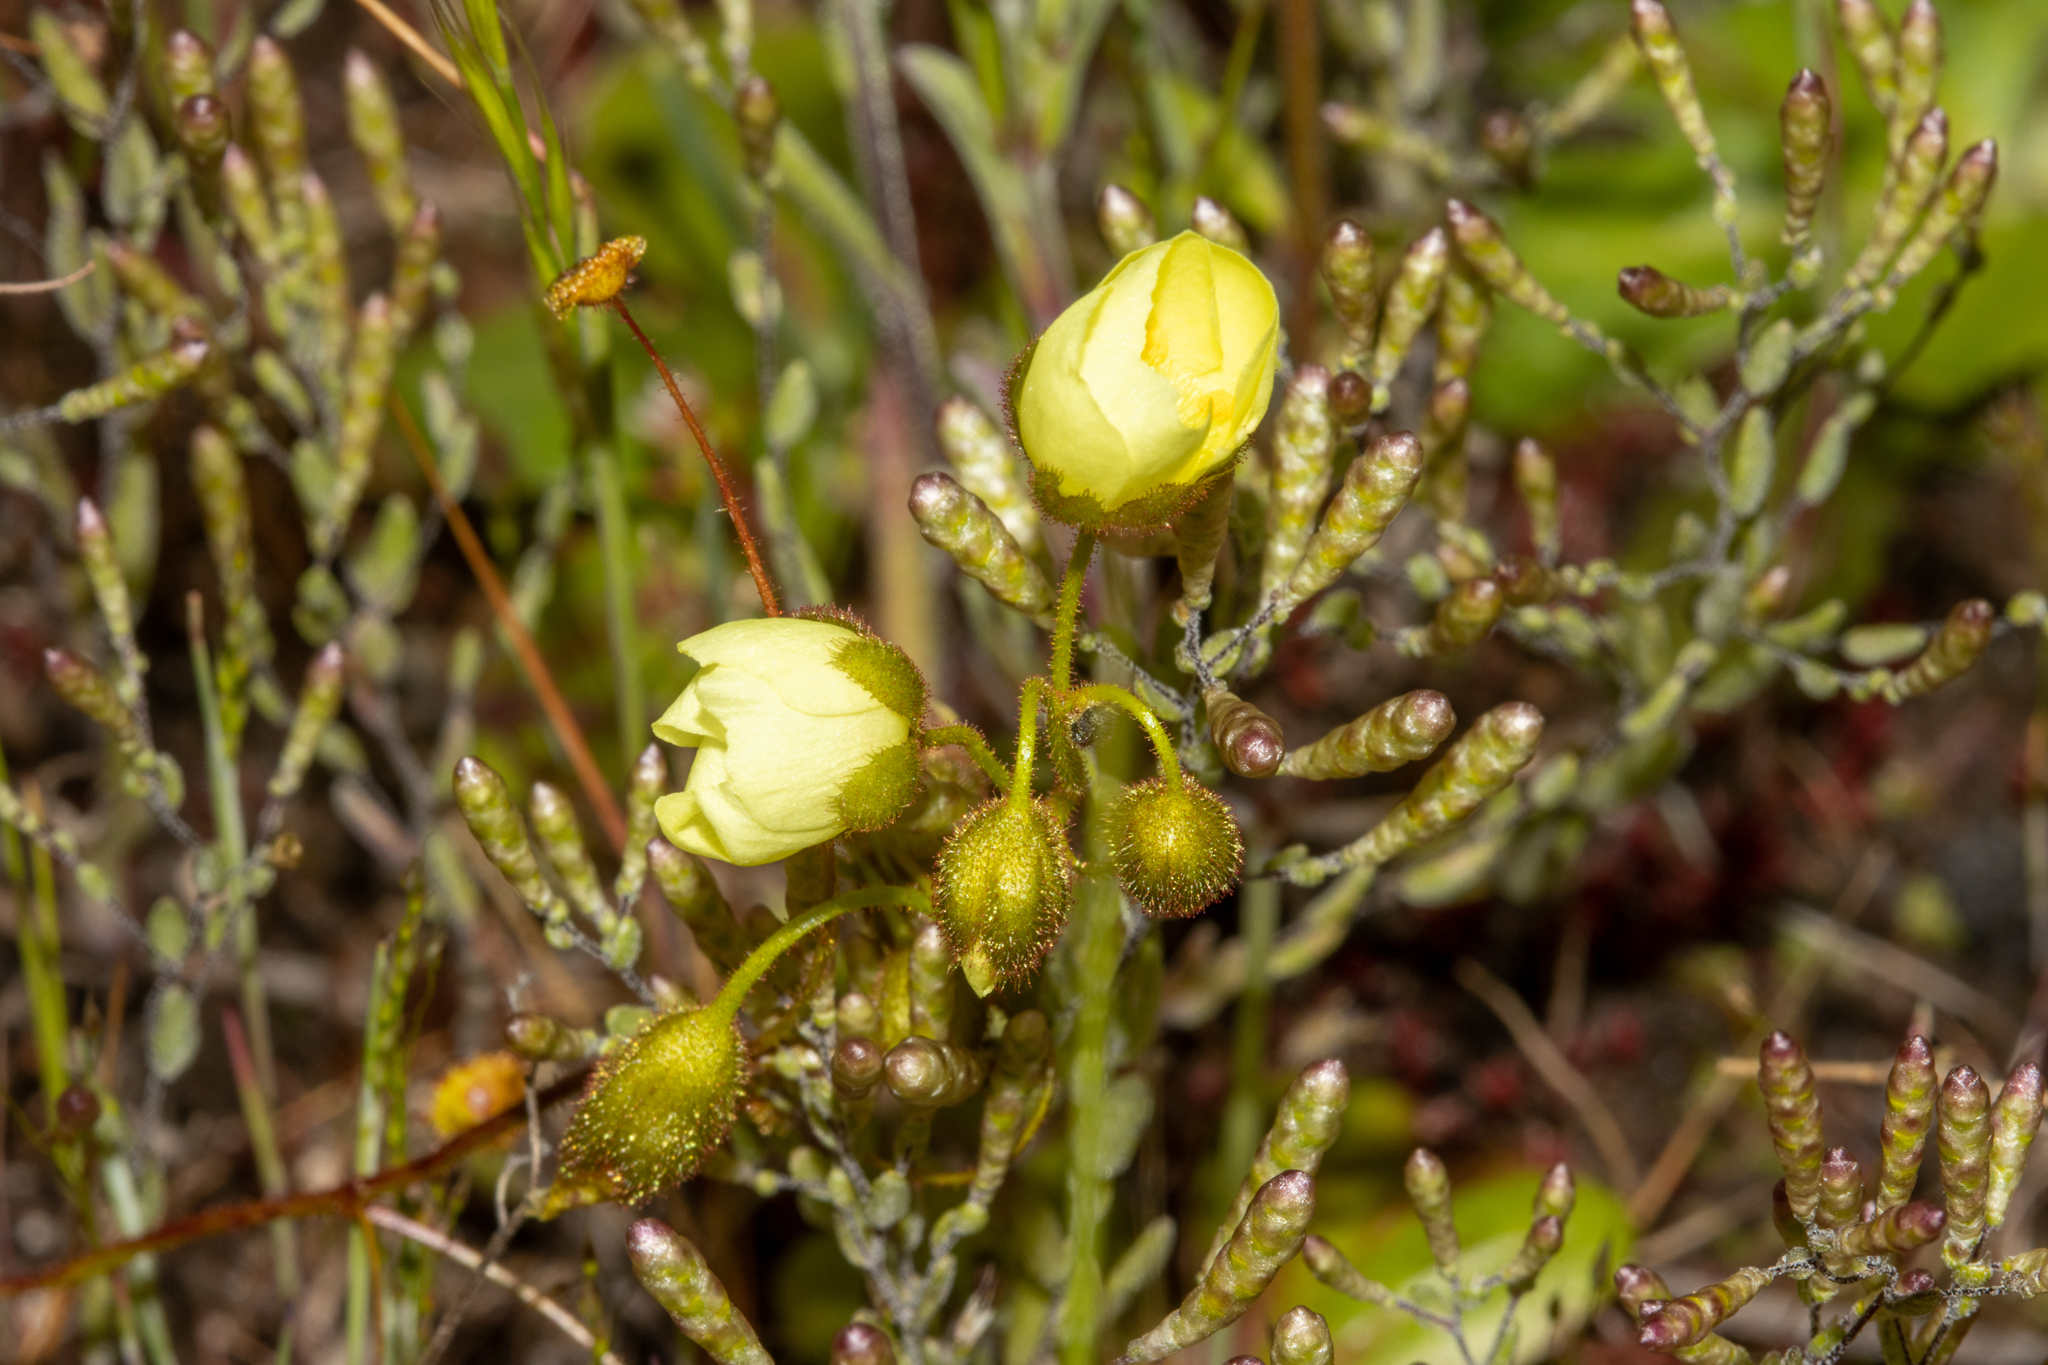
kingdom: Plantae
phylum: Tracheophyta
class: Magnoliopsida
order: Caryophyllales
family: Droseraceae
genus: Drosera
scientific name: Drosera subhirtella
